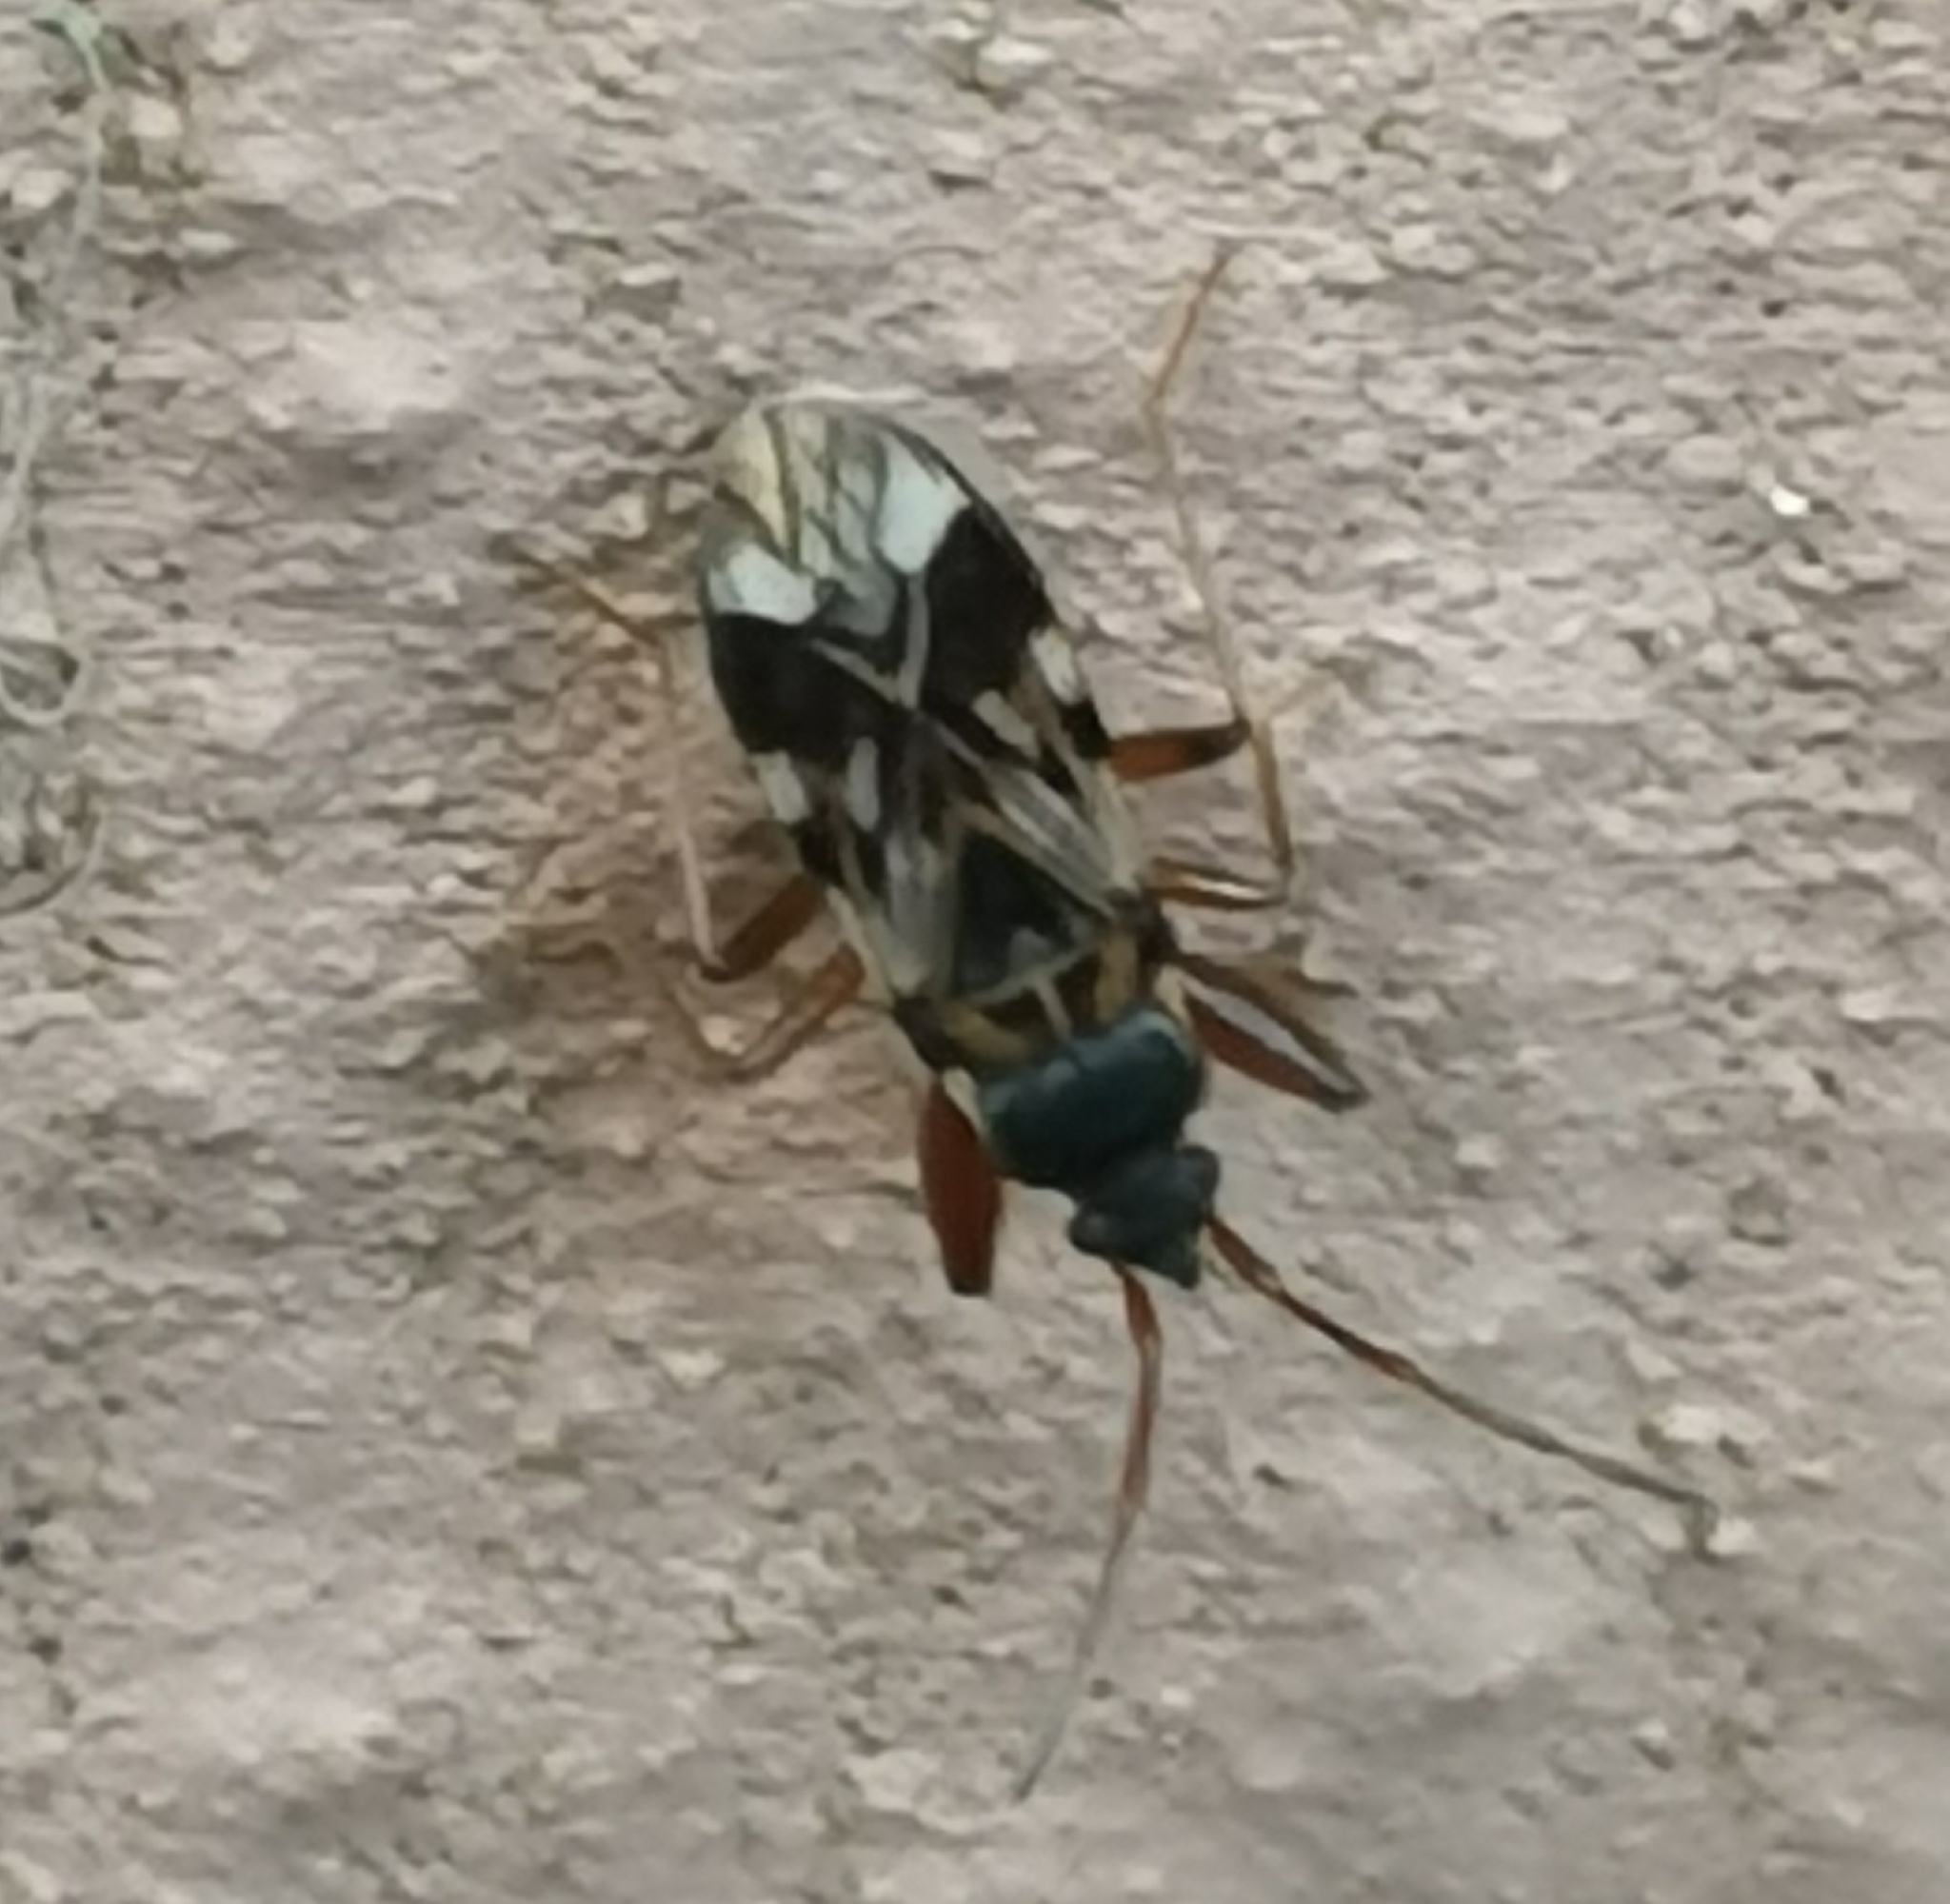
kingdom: Animalia
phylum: Arthropoda
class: Insecta
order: Hemiptera
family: Rhyparochromidae
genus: Scolopostethus
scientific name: Scolopostethus pictus
